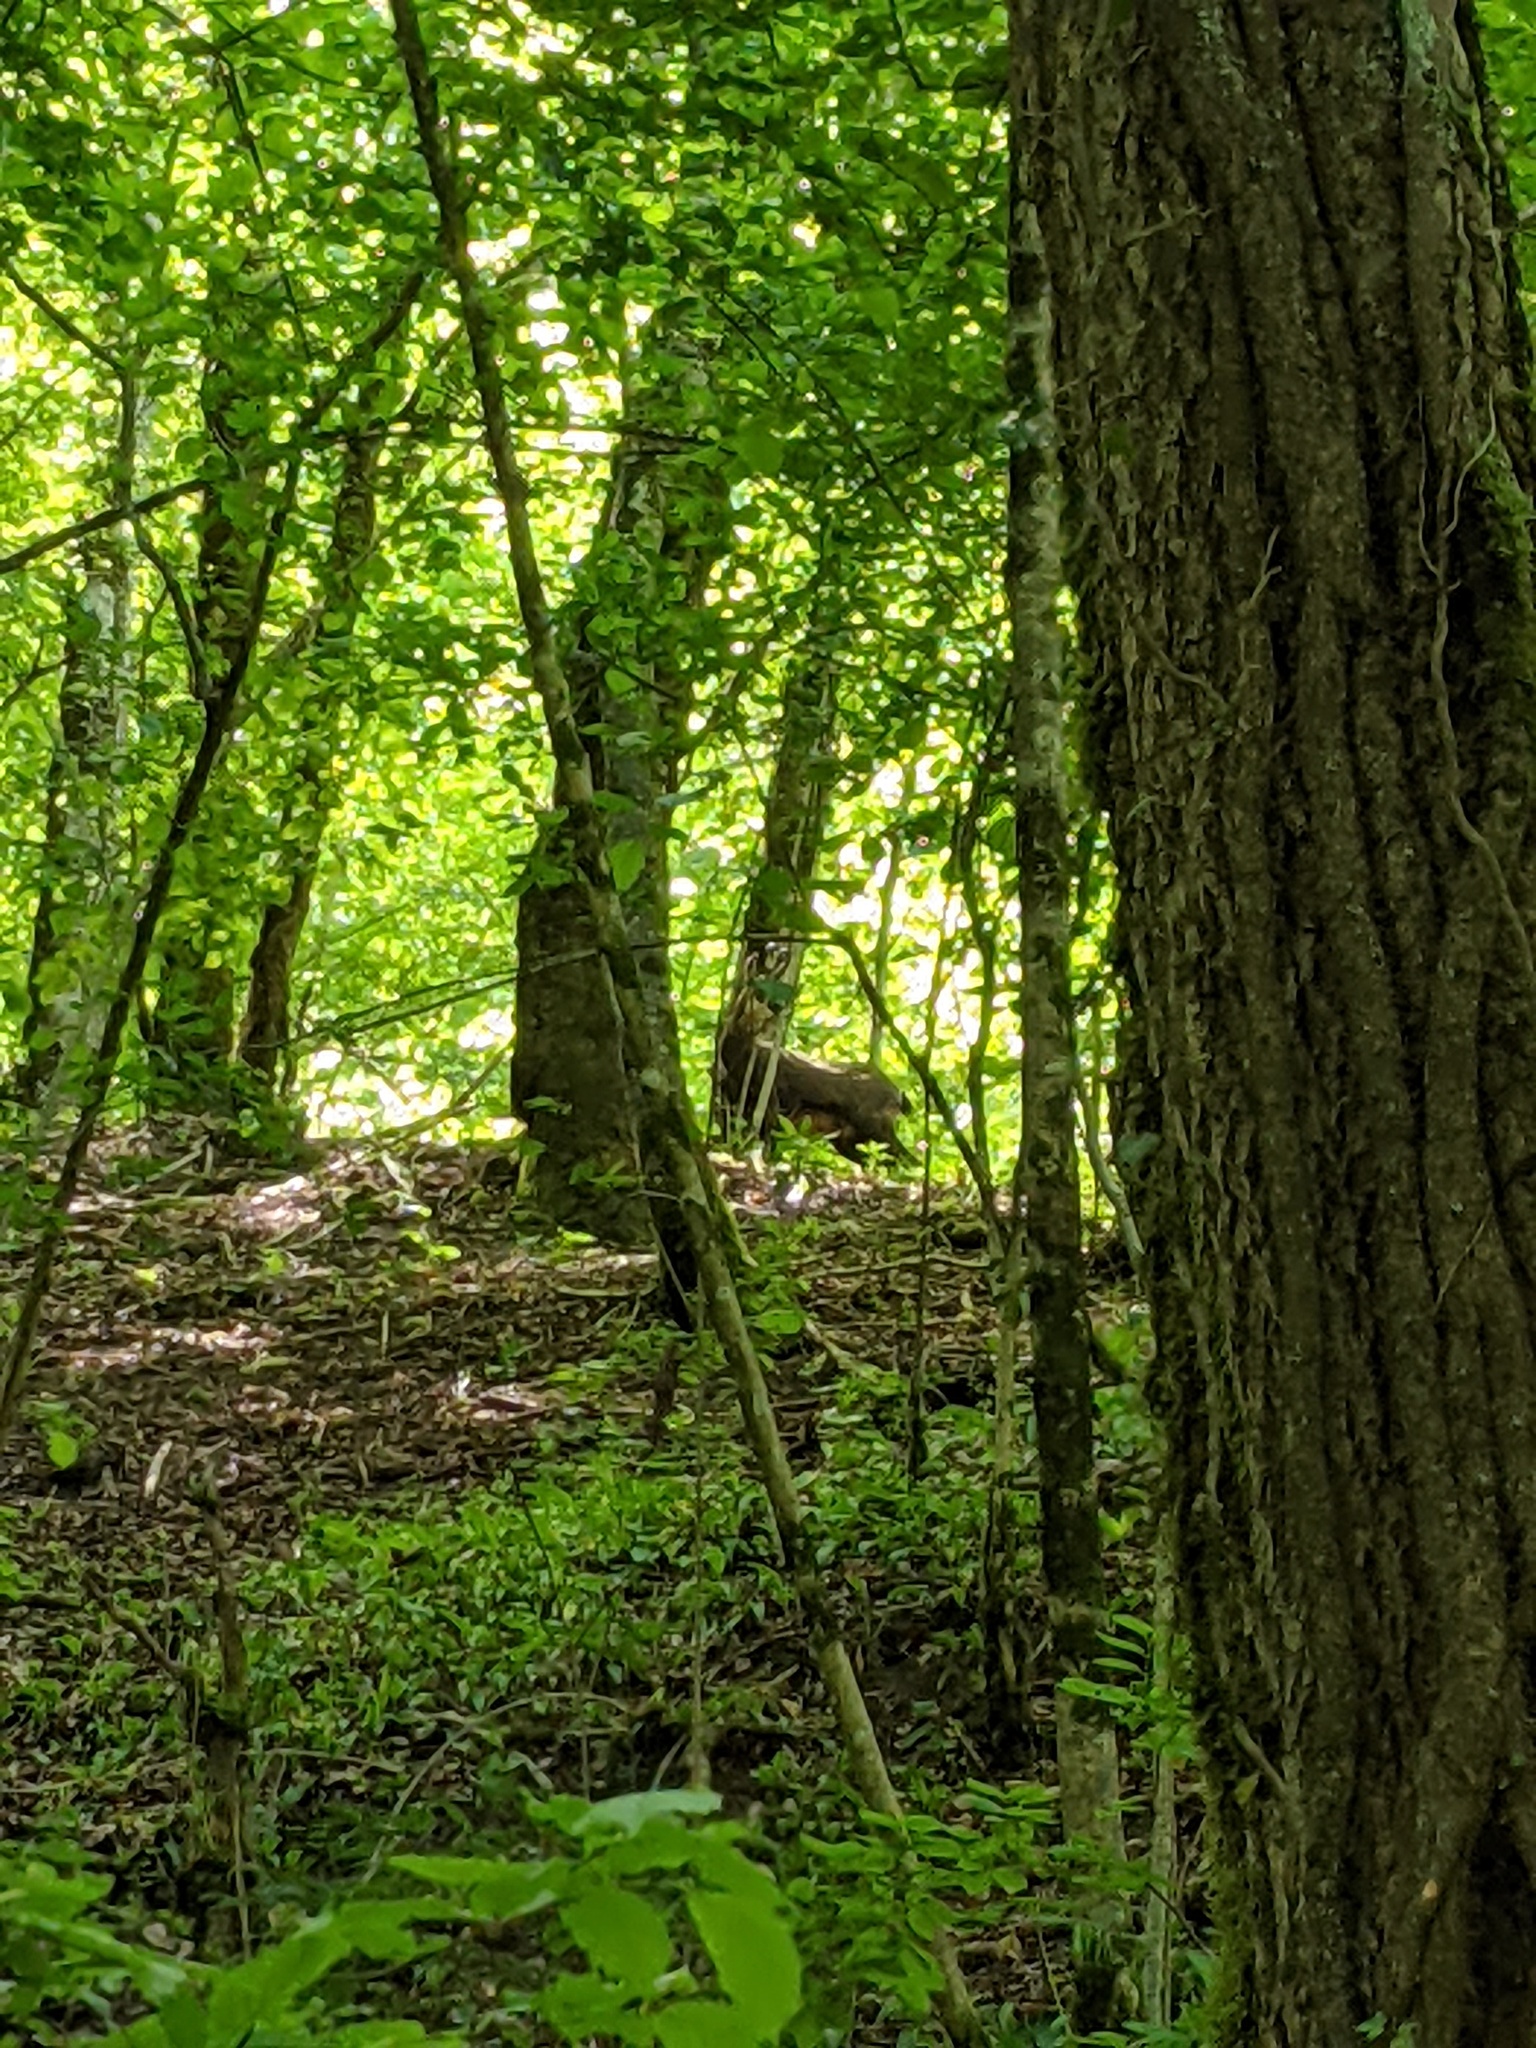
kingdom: Animalia
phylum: Chordata
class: Mammalia
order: Artiodactyla
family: Bovidae
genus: Rupicapra
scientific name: Rupicapra rupicapra
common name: Chamois
